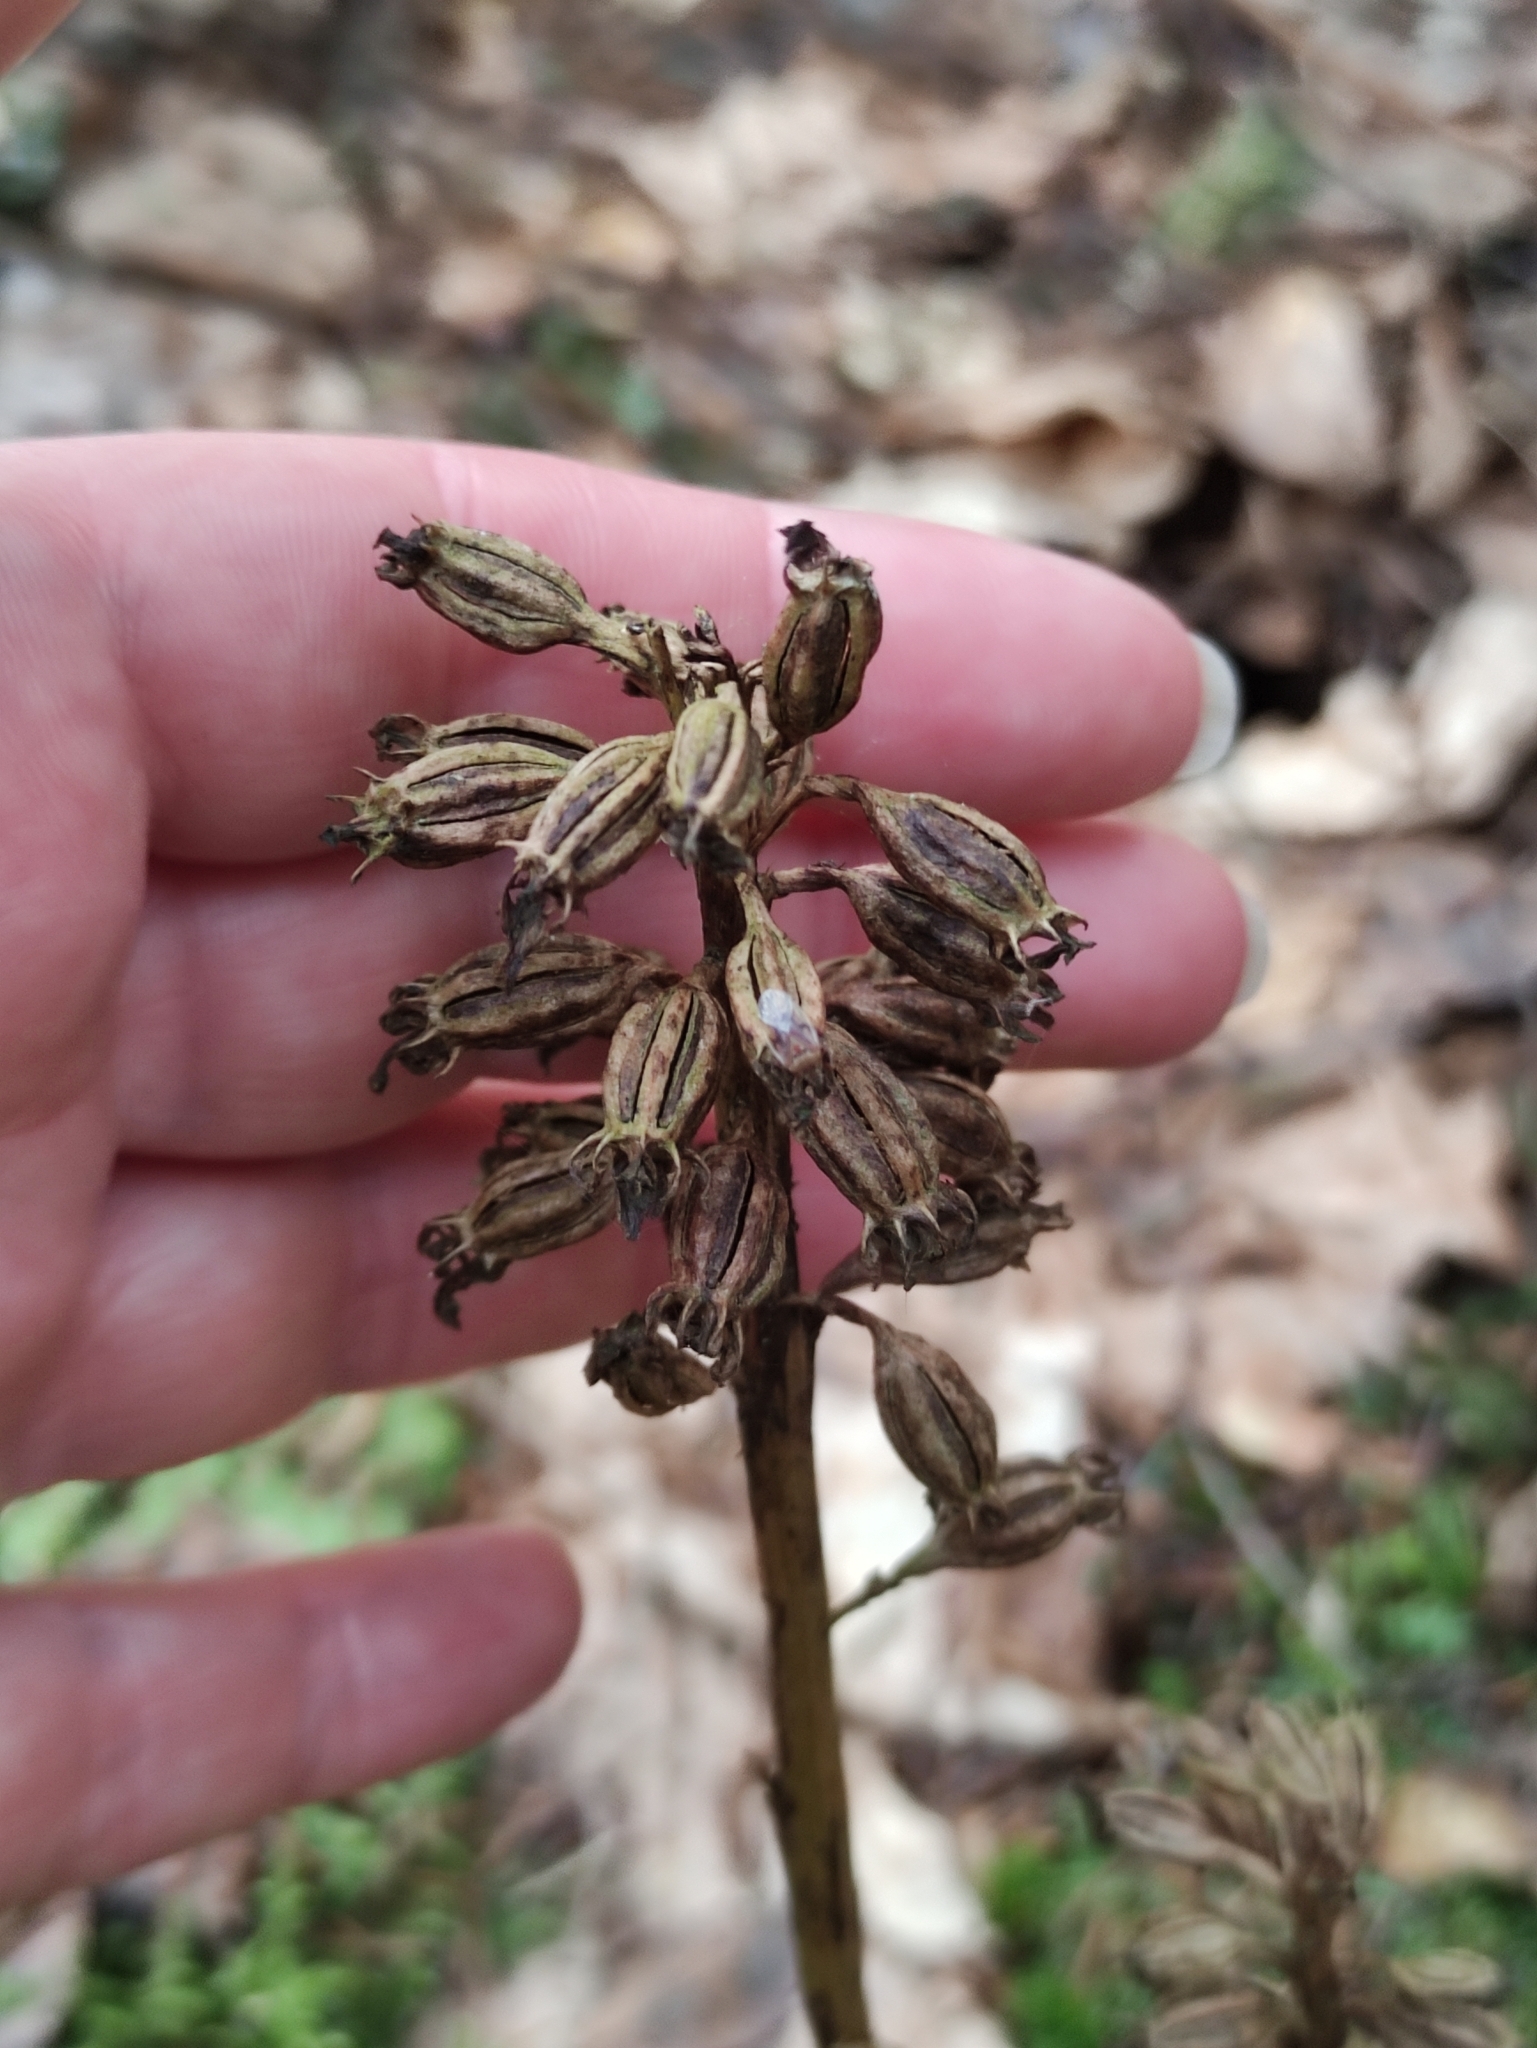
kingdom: Plantae
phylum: Tracheophyta
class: Liliopsida
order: Asparagales
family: Orchidaceae
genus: Neottia
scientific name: Neottia nidus-avis
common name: Bird's-nest orchid
